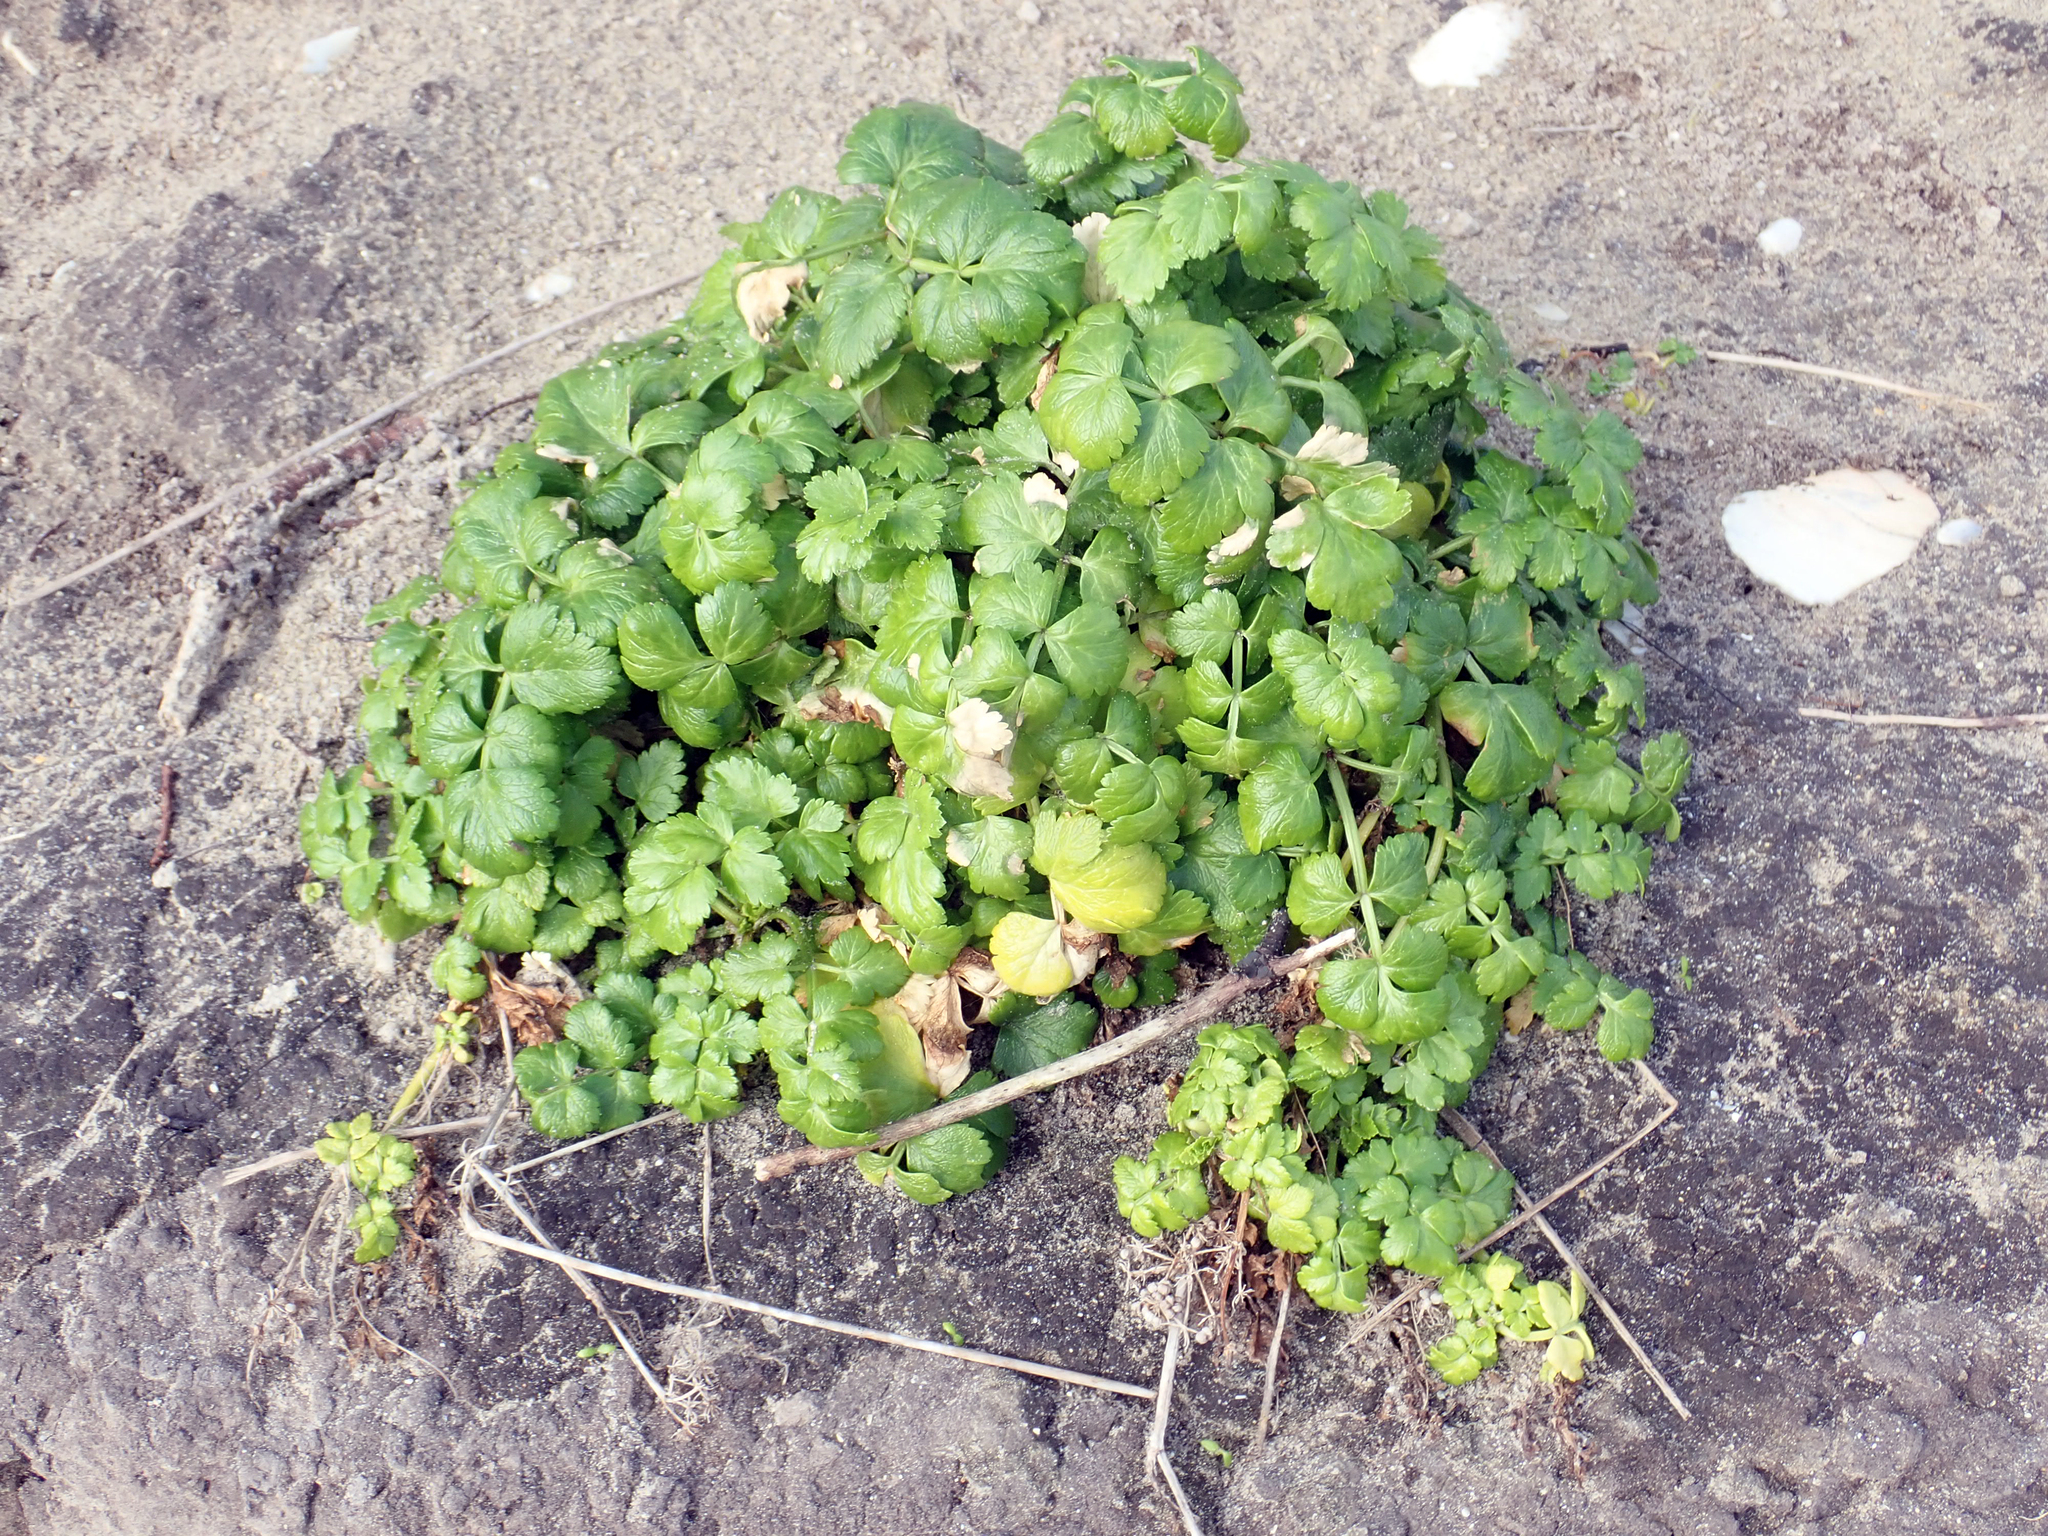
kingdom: Plantae
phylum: Tracheophyta
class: Magnoliopsida
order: Apiales
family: Apiaceae
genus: Apium
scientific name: Apium prostratum
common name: Prostrate marshwort
